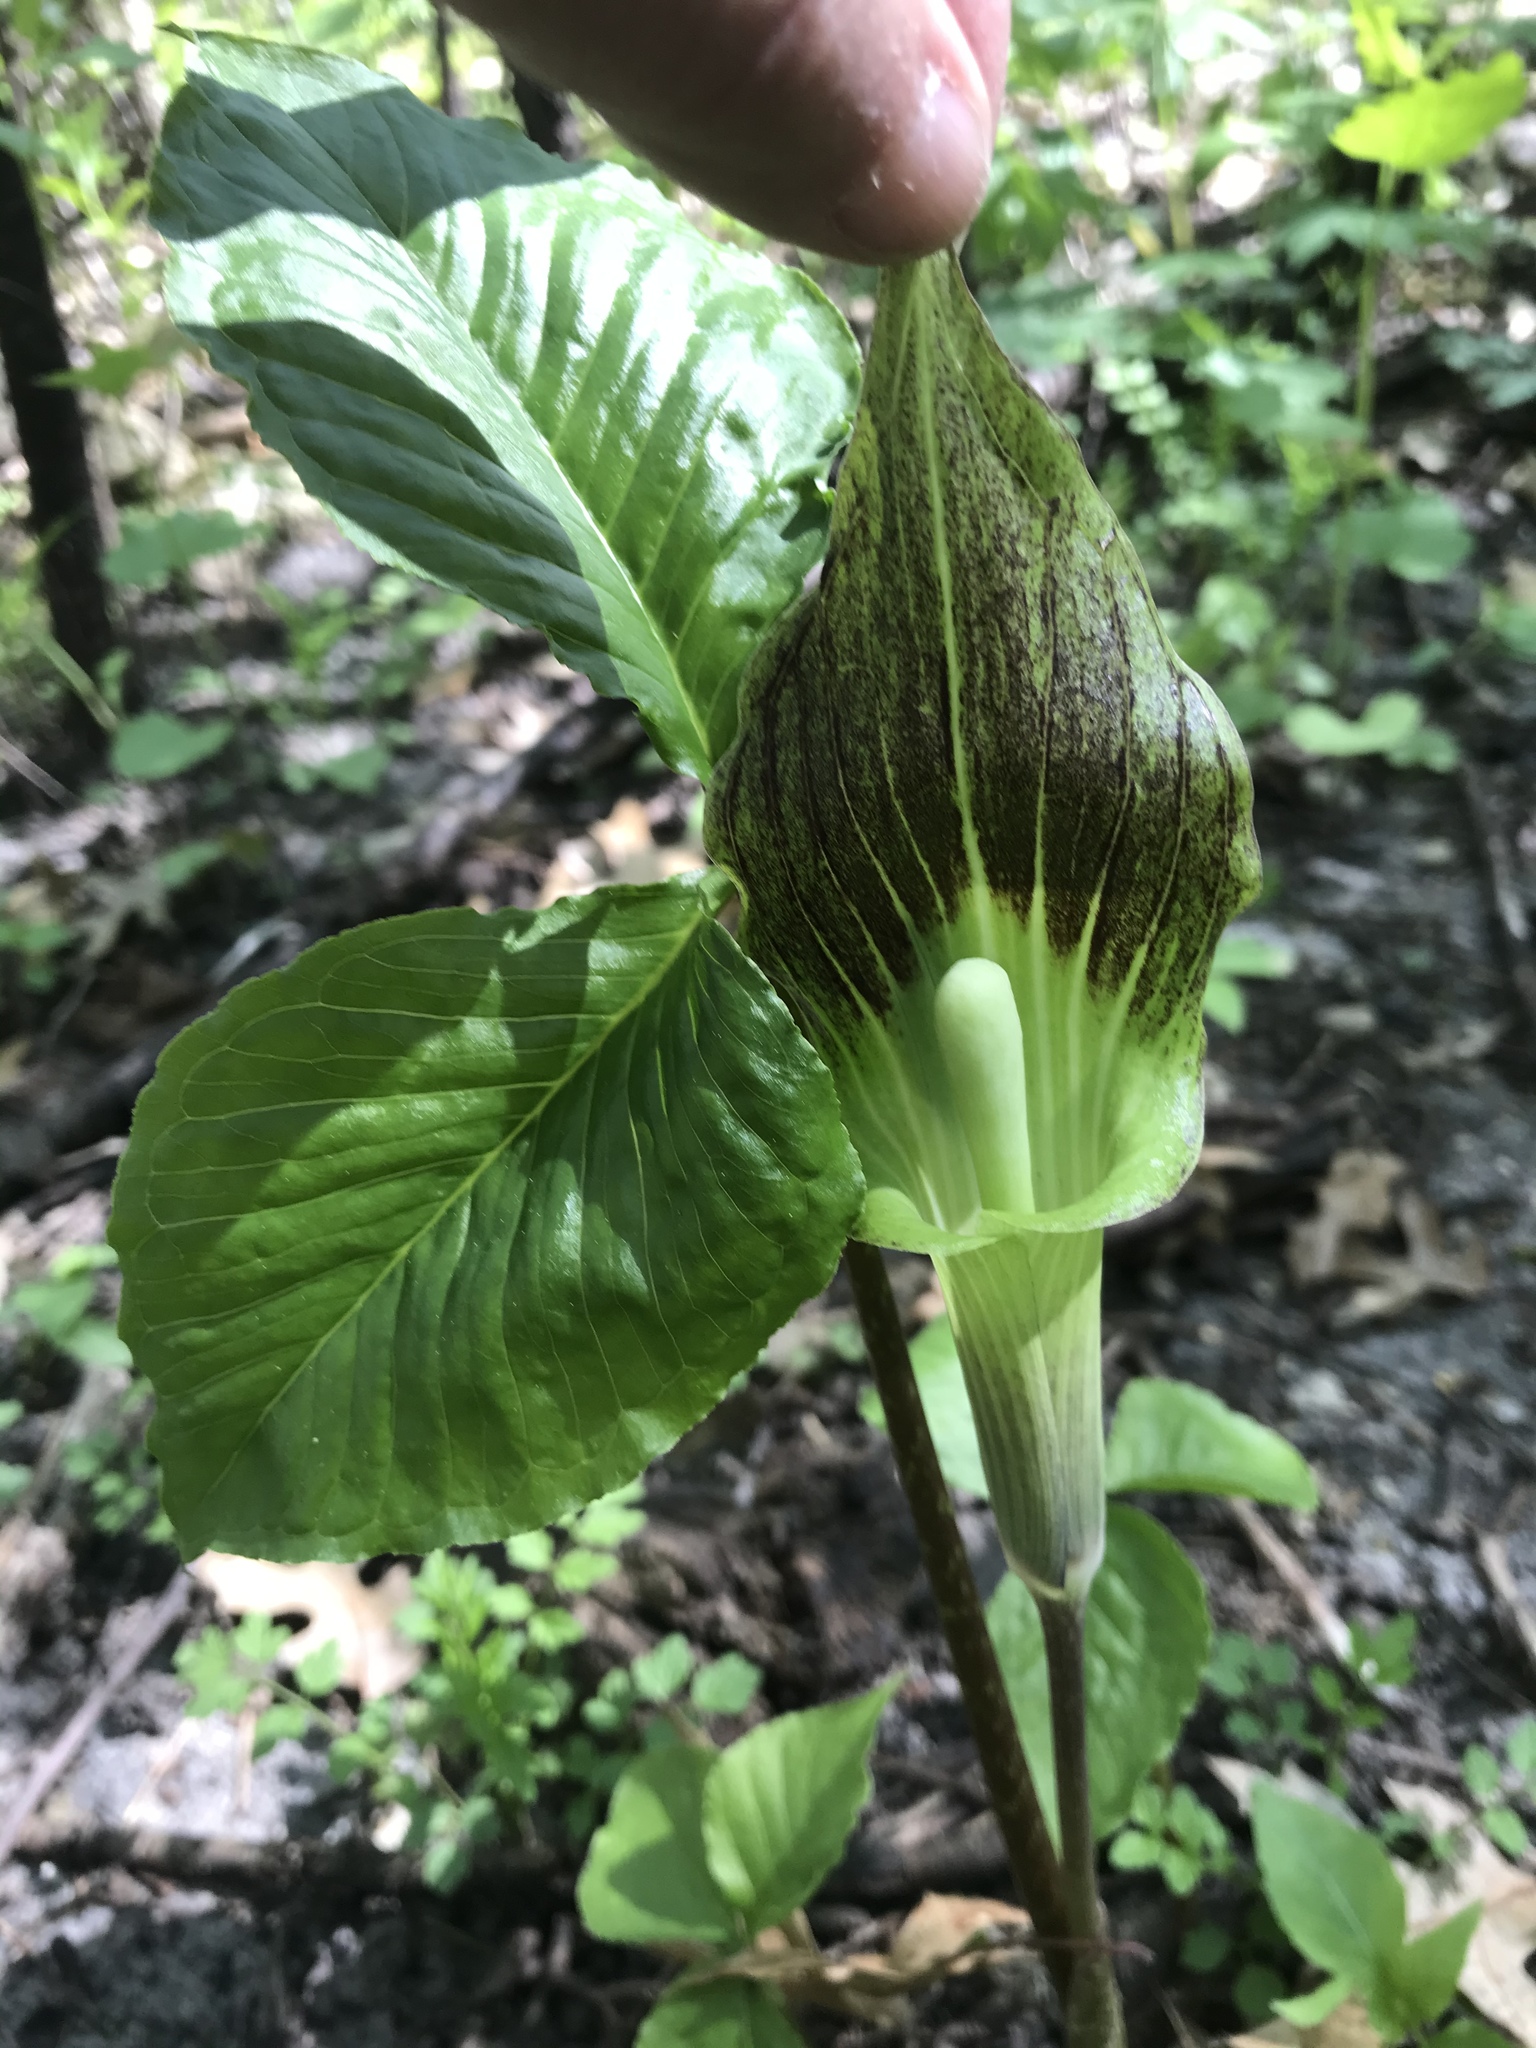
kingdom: Plantae
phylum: Tracheophyta
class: Liliopsida
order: Alismatales
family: Araceae
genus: Arisaema
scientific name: Arisaema triphyllum
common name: Jack-in-the-pulpit
